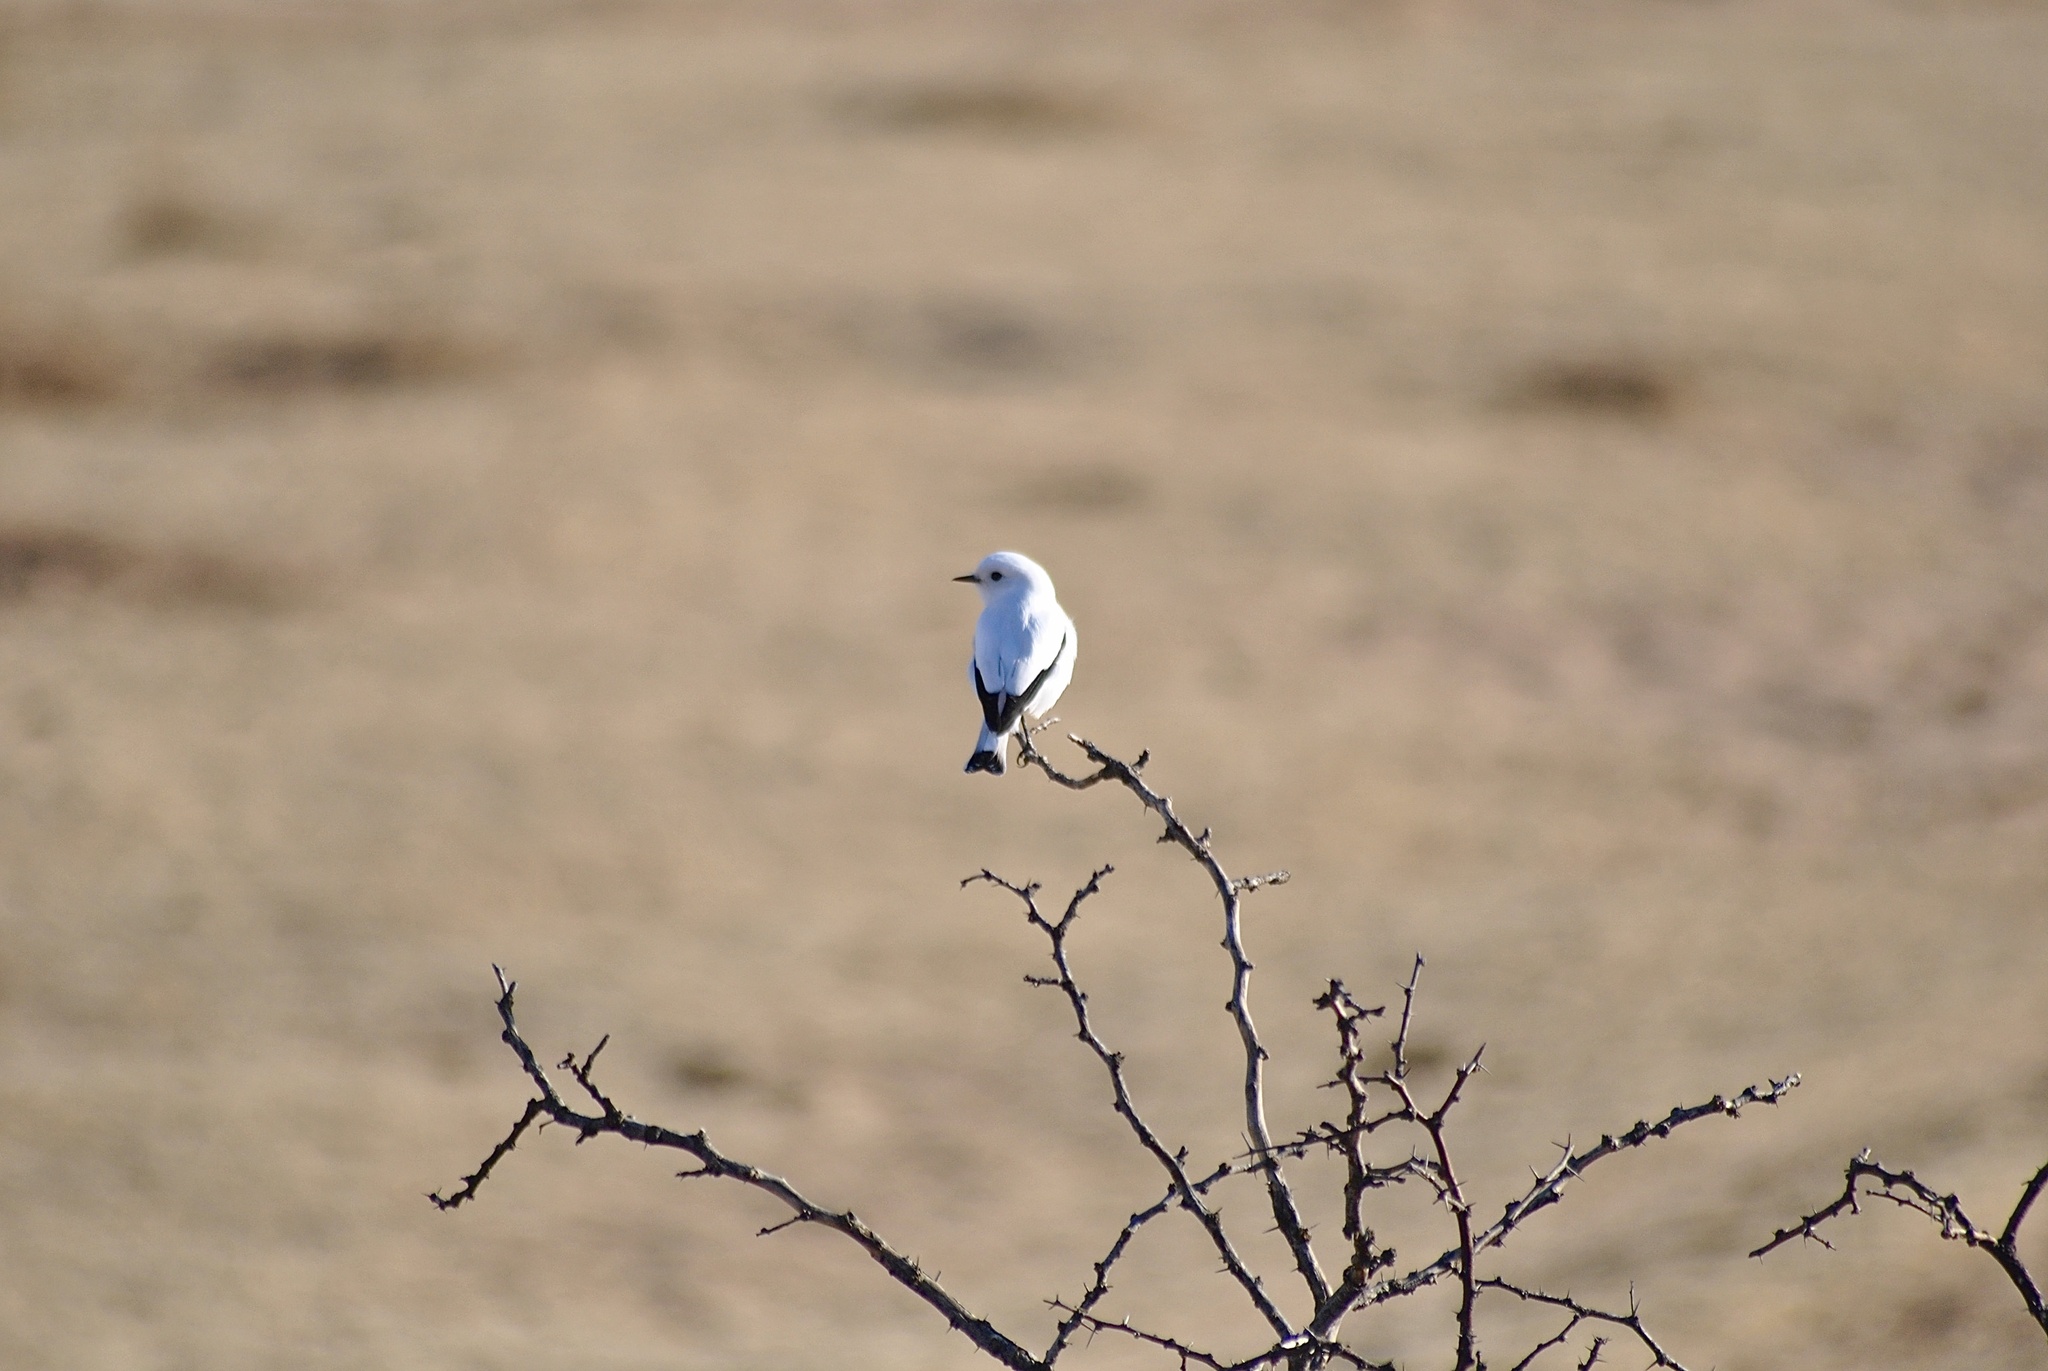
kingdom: Animalia
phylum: Chordata
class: Aves
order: Passeriformes
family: Tyrannidae
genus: Xolmis
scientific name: Xolmis irupero
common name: White monjita
